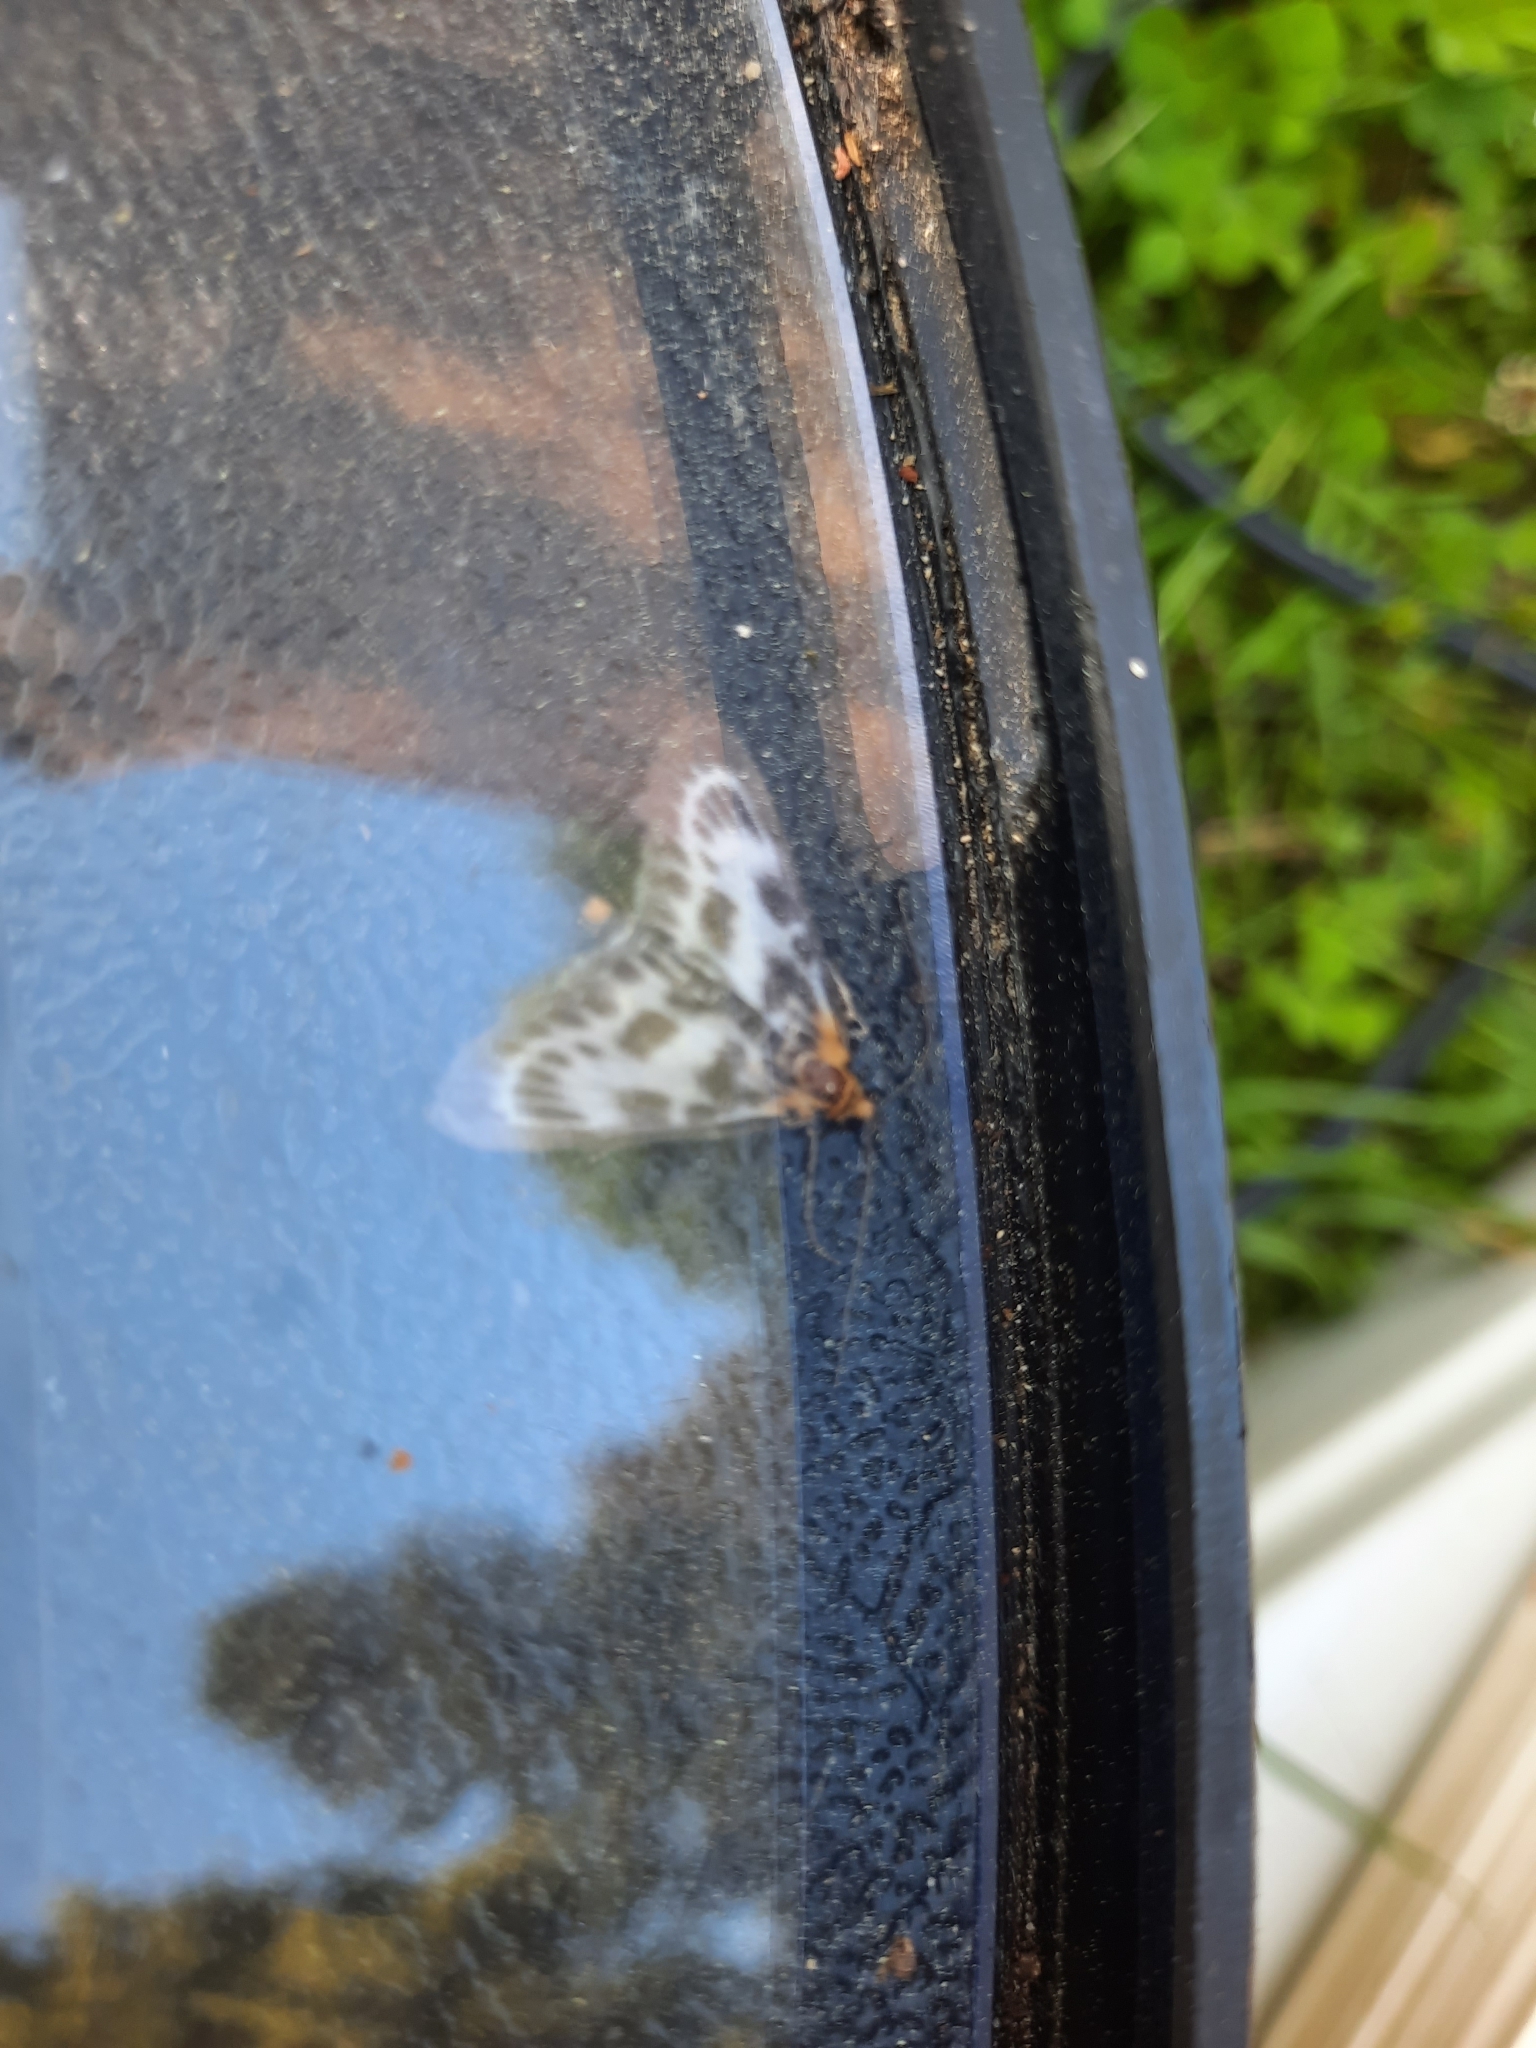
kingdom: Animalia
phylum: Arthropoda
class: Insecta
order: Lepidoptera
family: Crambidae
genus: Anania
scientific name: Anania hortulata
